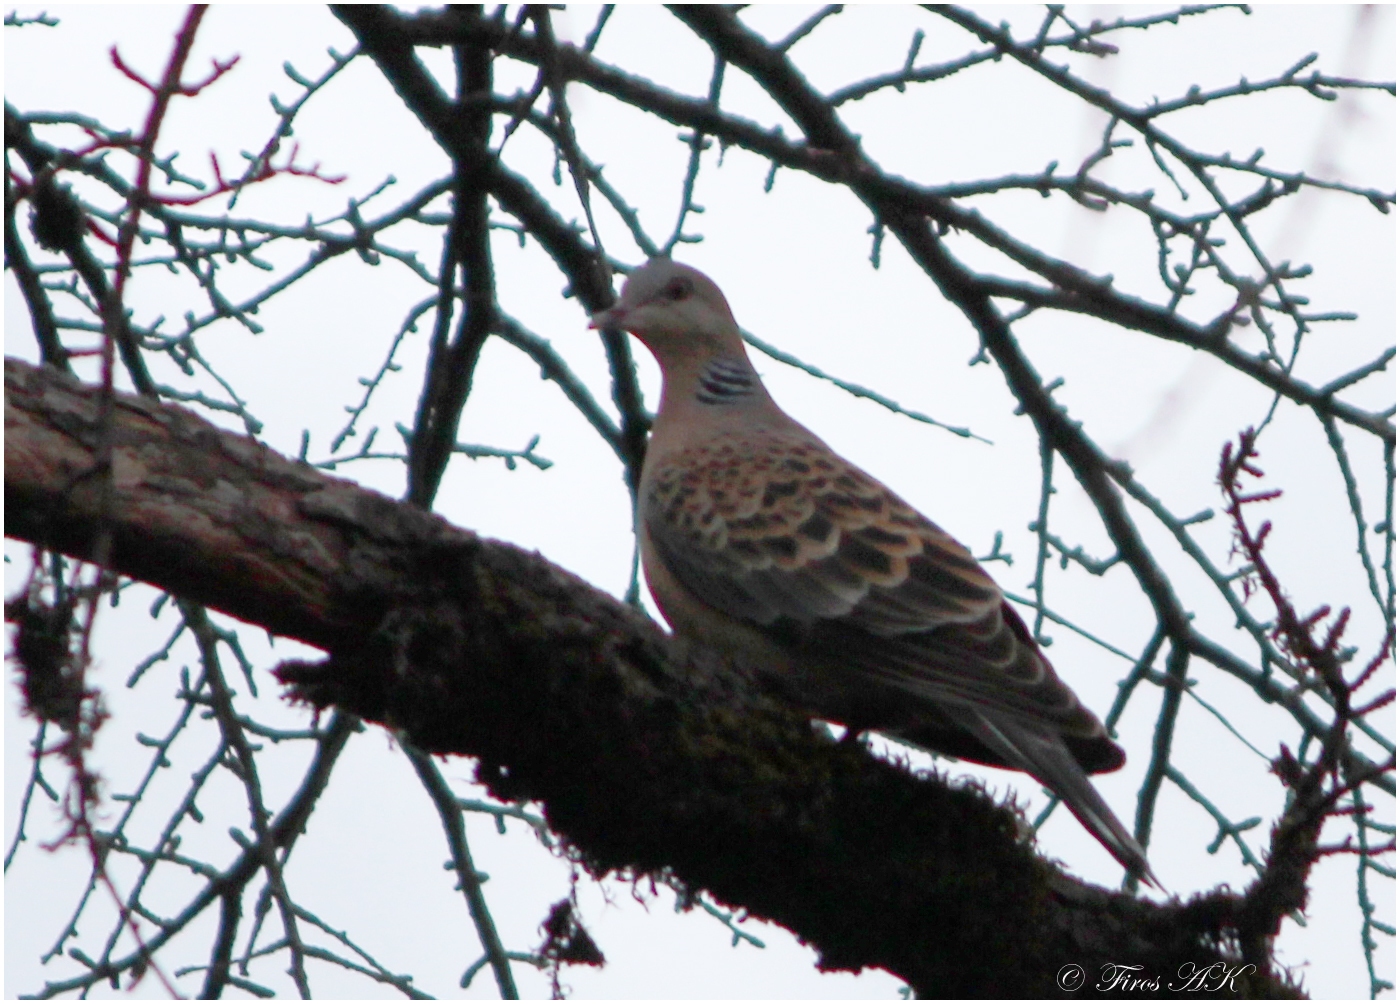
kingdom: Animalia
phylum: Chordata
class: Aves
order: Columbiformes
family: Columbidae
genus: Streptopelia
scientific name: Streptopelia orientalis
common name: Oriental turtle dove
